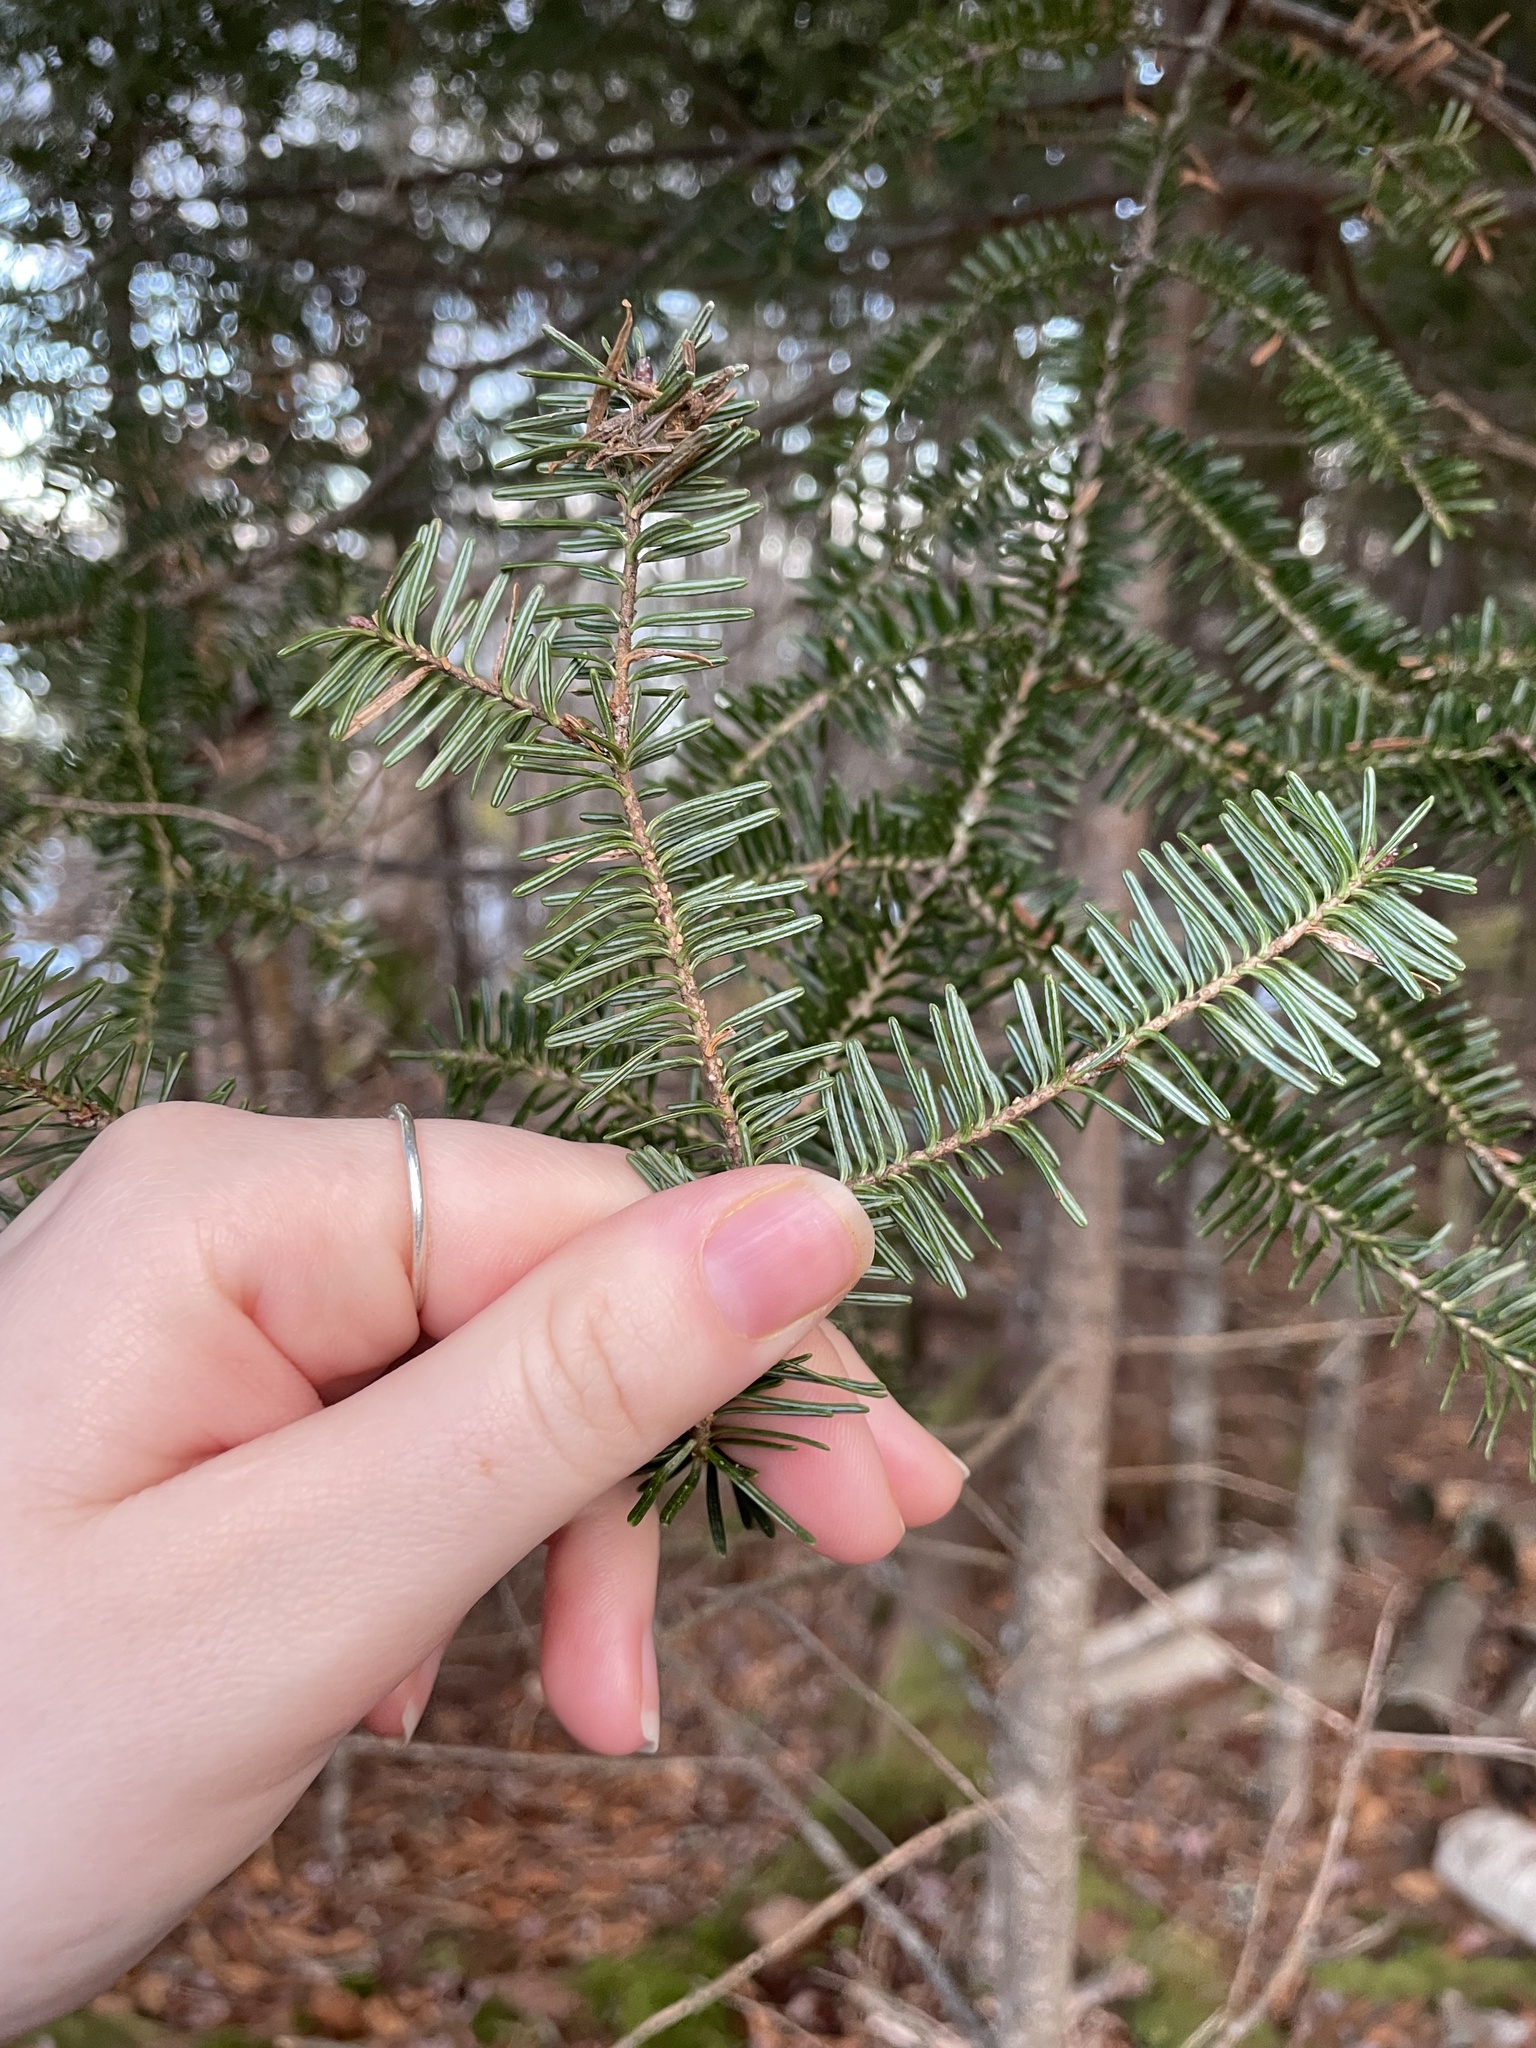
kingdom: Plantae
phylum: Tracheophyta
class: Pinopsida
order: Pinales
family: Pinaceae
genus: Abies
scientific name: Abies balsamea
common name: Balsam fir
